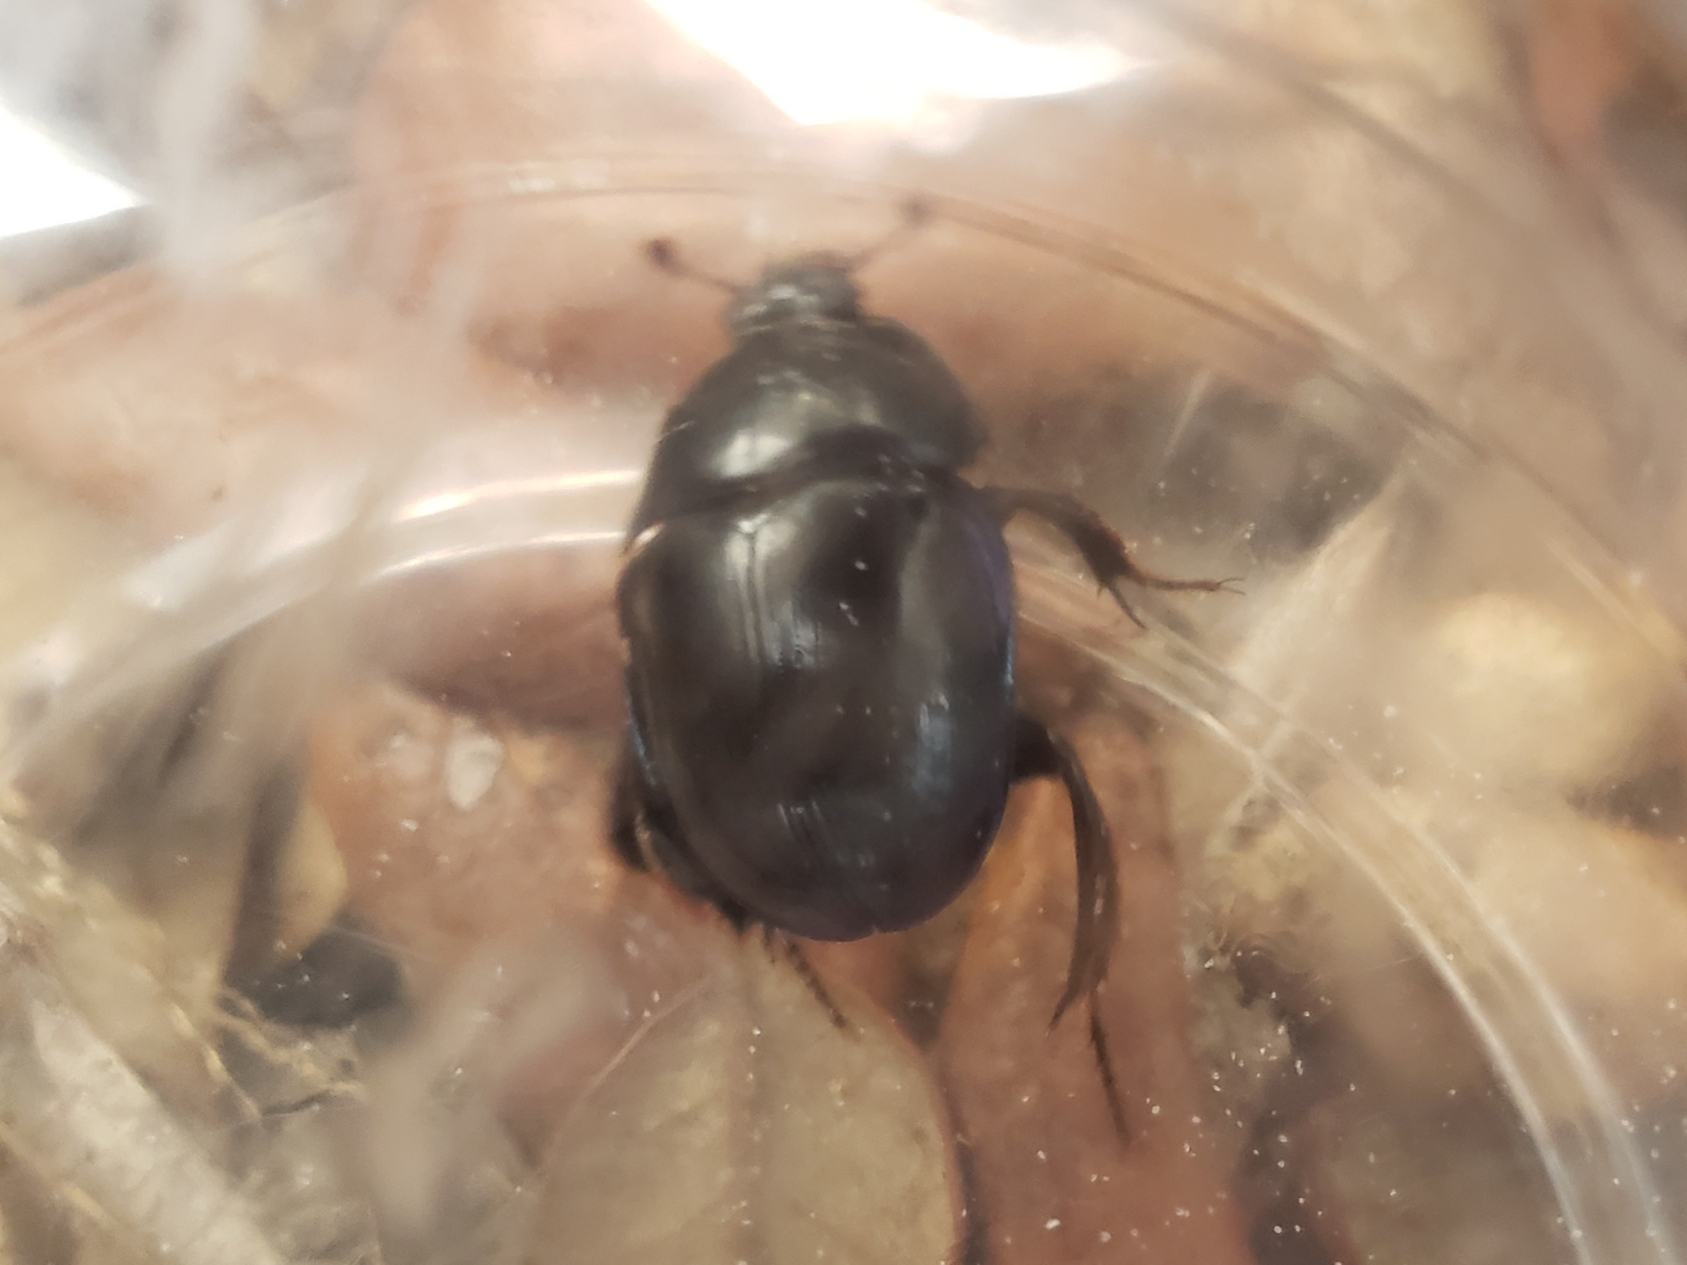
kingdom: Animalia
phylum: Arthropoda
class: Insecta
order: Coleoptera
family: Geotrupidae
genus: Peltotrupes
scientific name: Peltotrupes profundus
